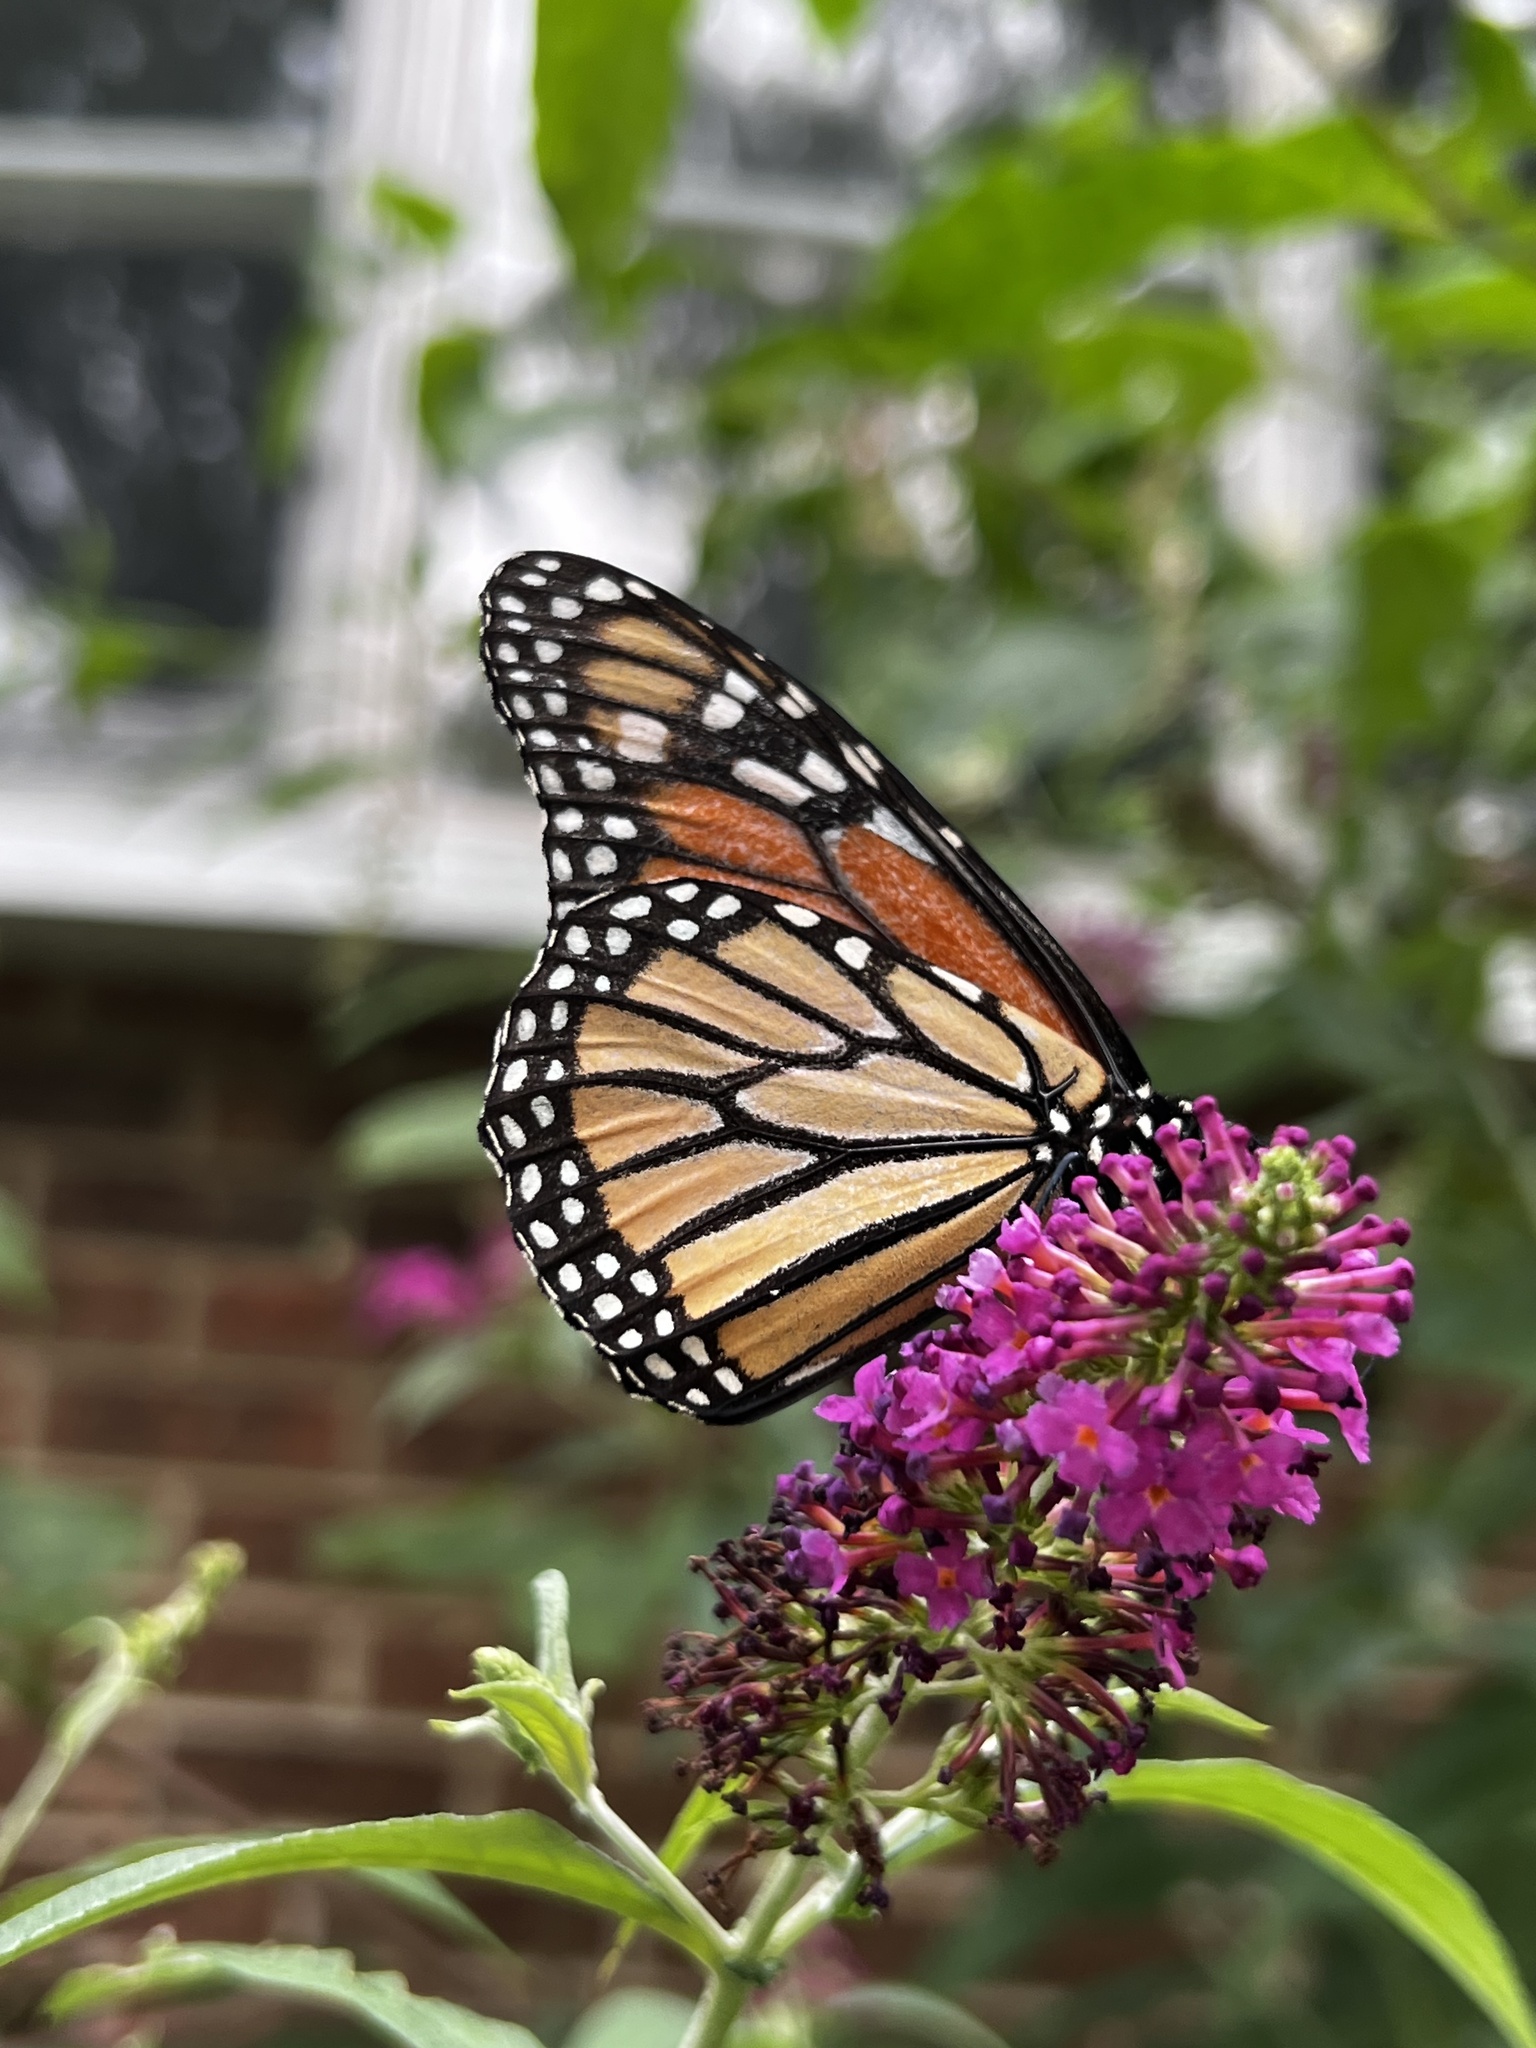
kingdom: Animalia
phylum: Arthropoda
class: Insecta
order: Lepidoptera
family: Nymphalidae
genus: Danaus
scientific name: Danaus plexippus
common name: Monarch
